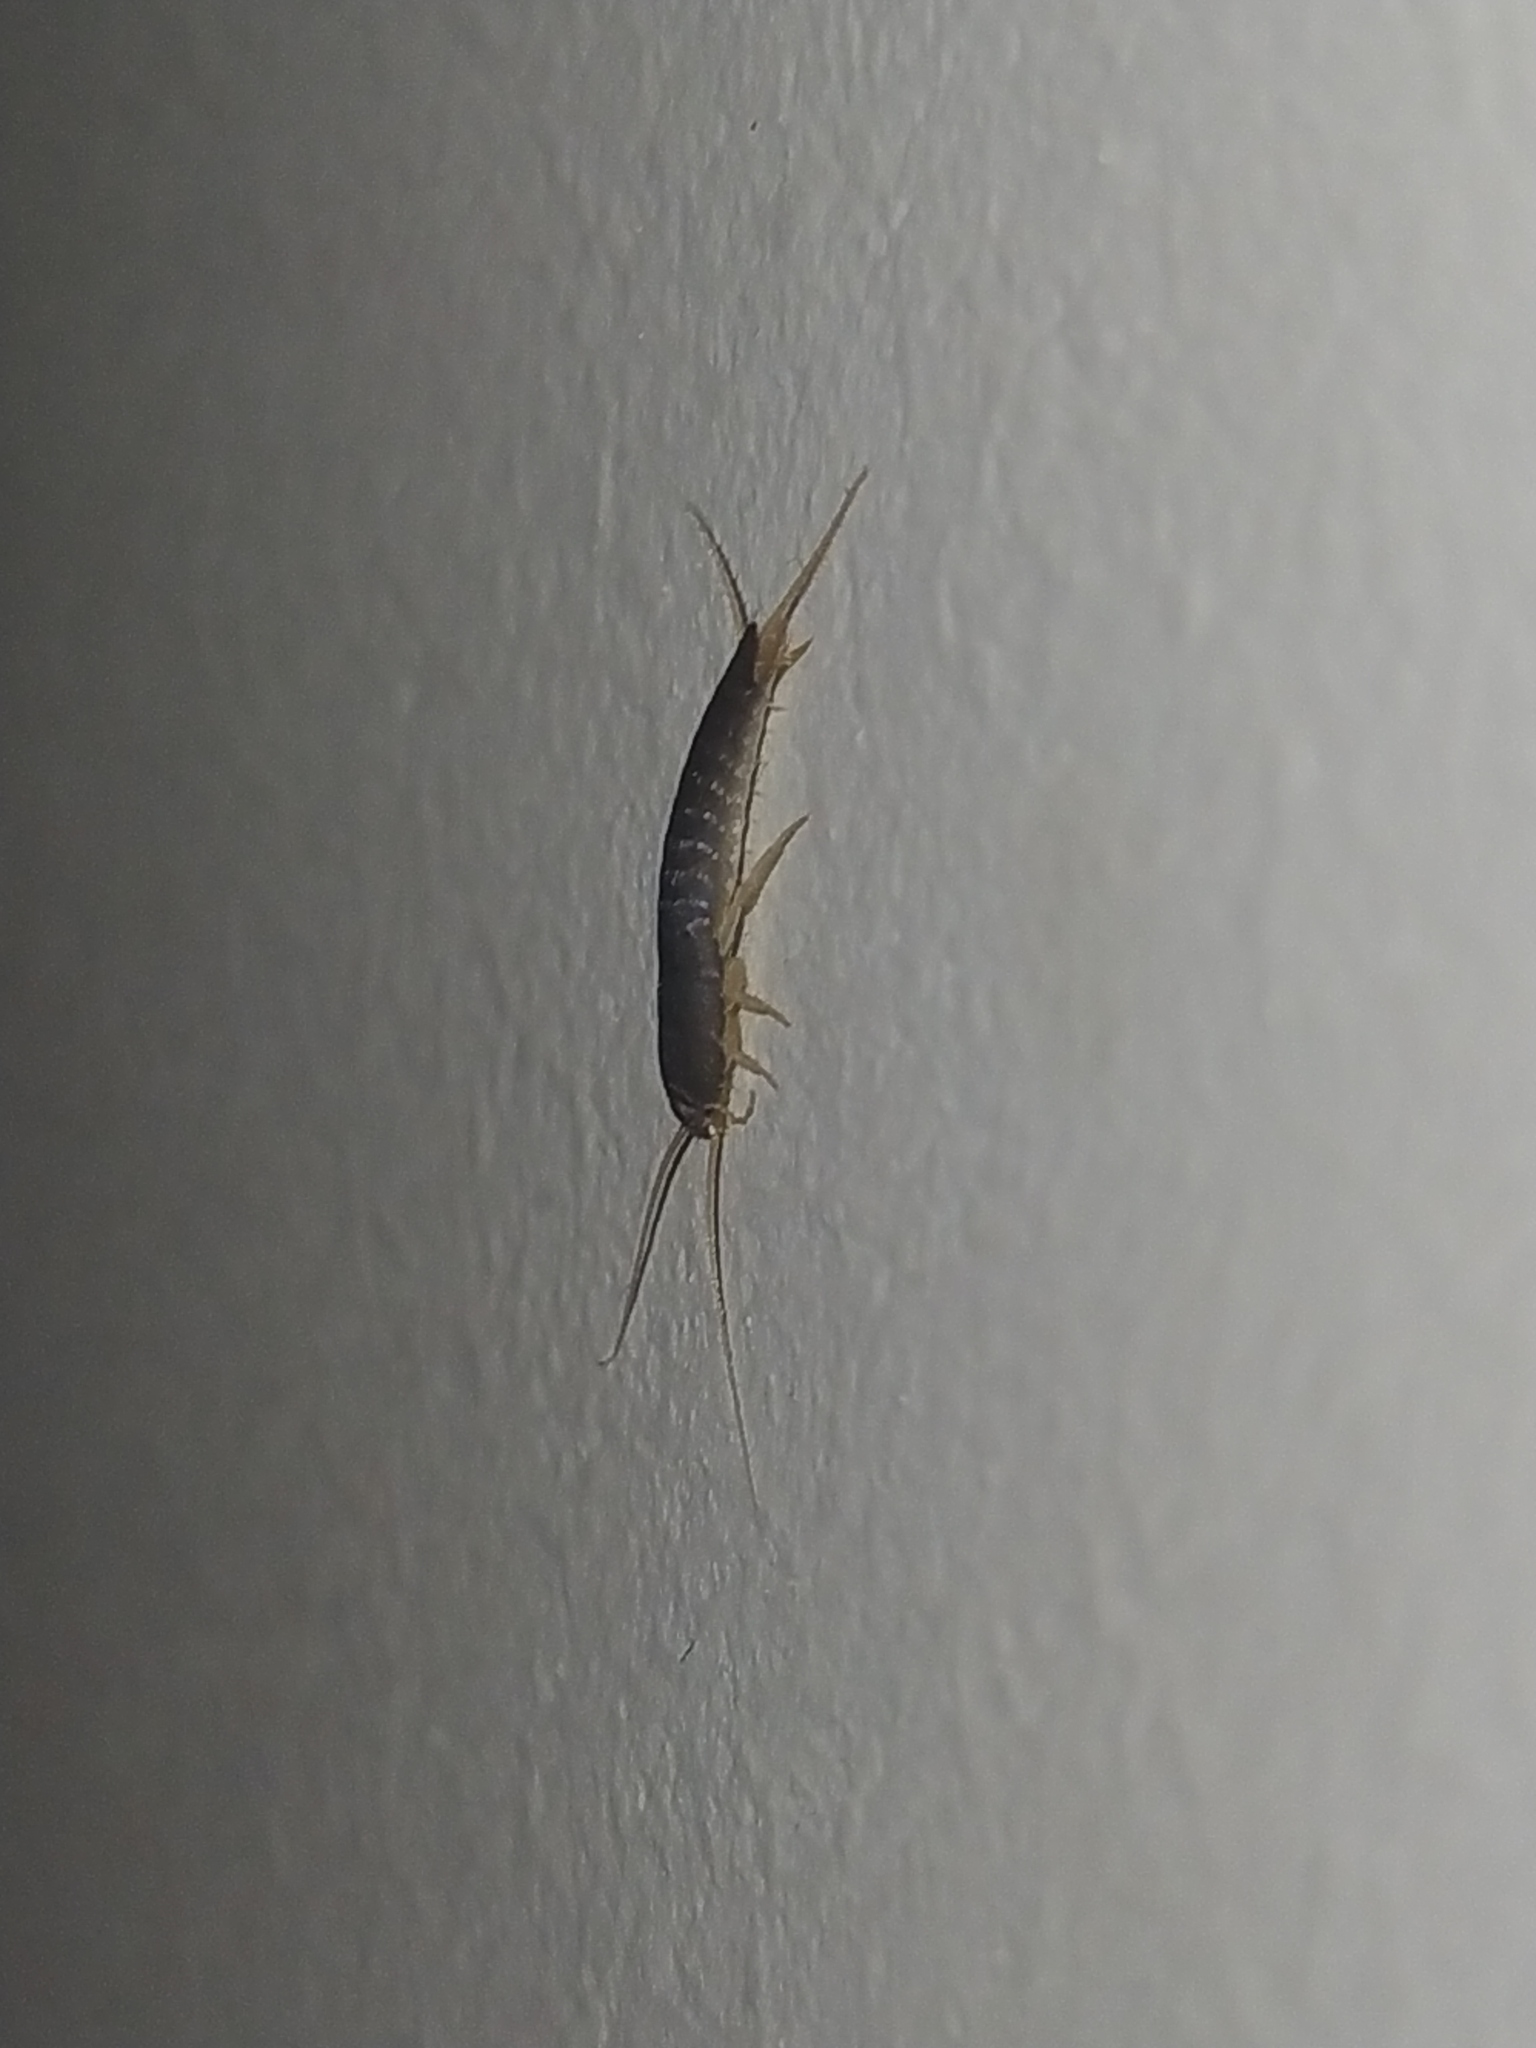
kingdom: Animalia
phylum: Arthropoda
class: Insecta
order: Zygentoma
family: Lepismatidae
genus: Lepisma
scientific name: Lepisma saccharinum
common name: Silverfish
